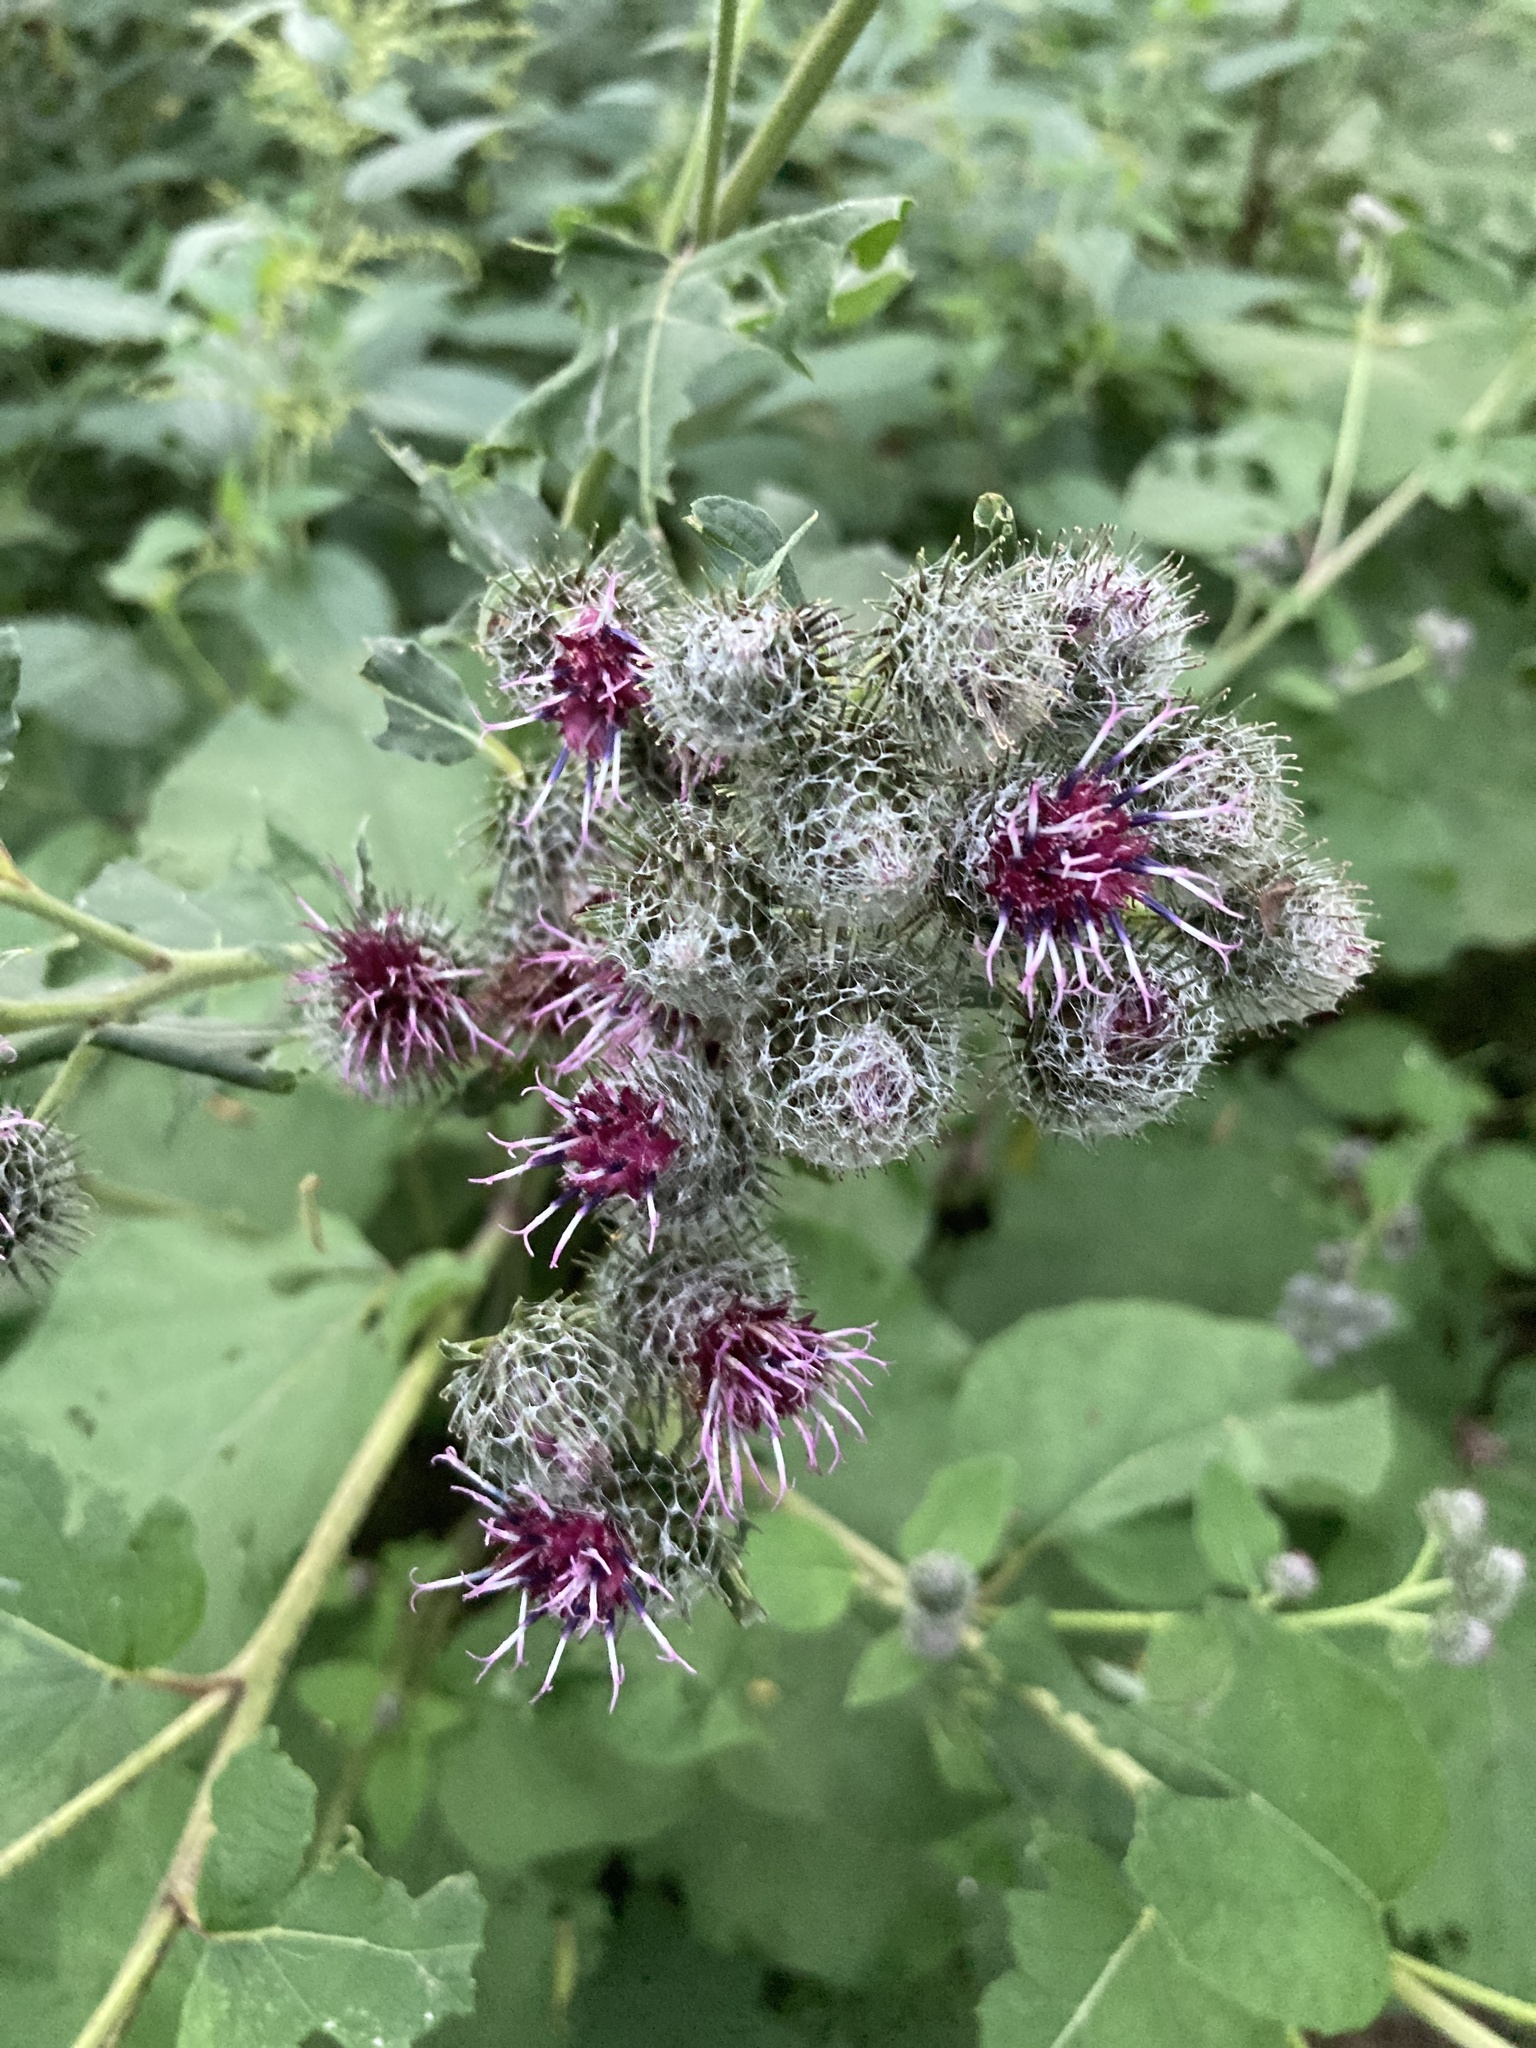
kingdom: Plantae
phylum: Tracheophyta
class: Magnoliopsida
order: Asterales
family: Asteraceae
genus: Arctium
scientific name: Arctium tomentosum
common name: Woolly burdock
